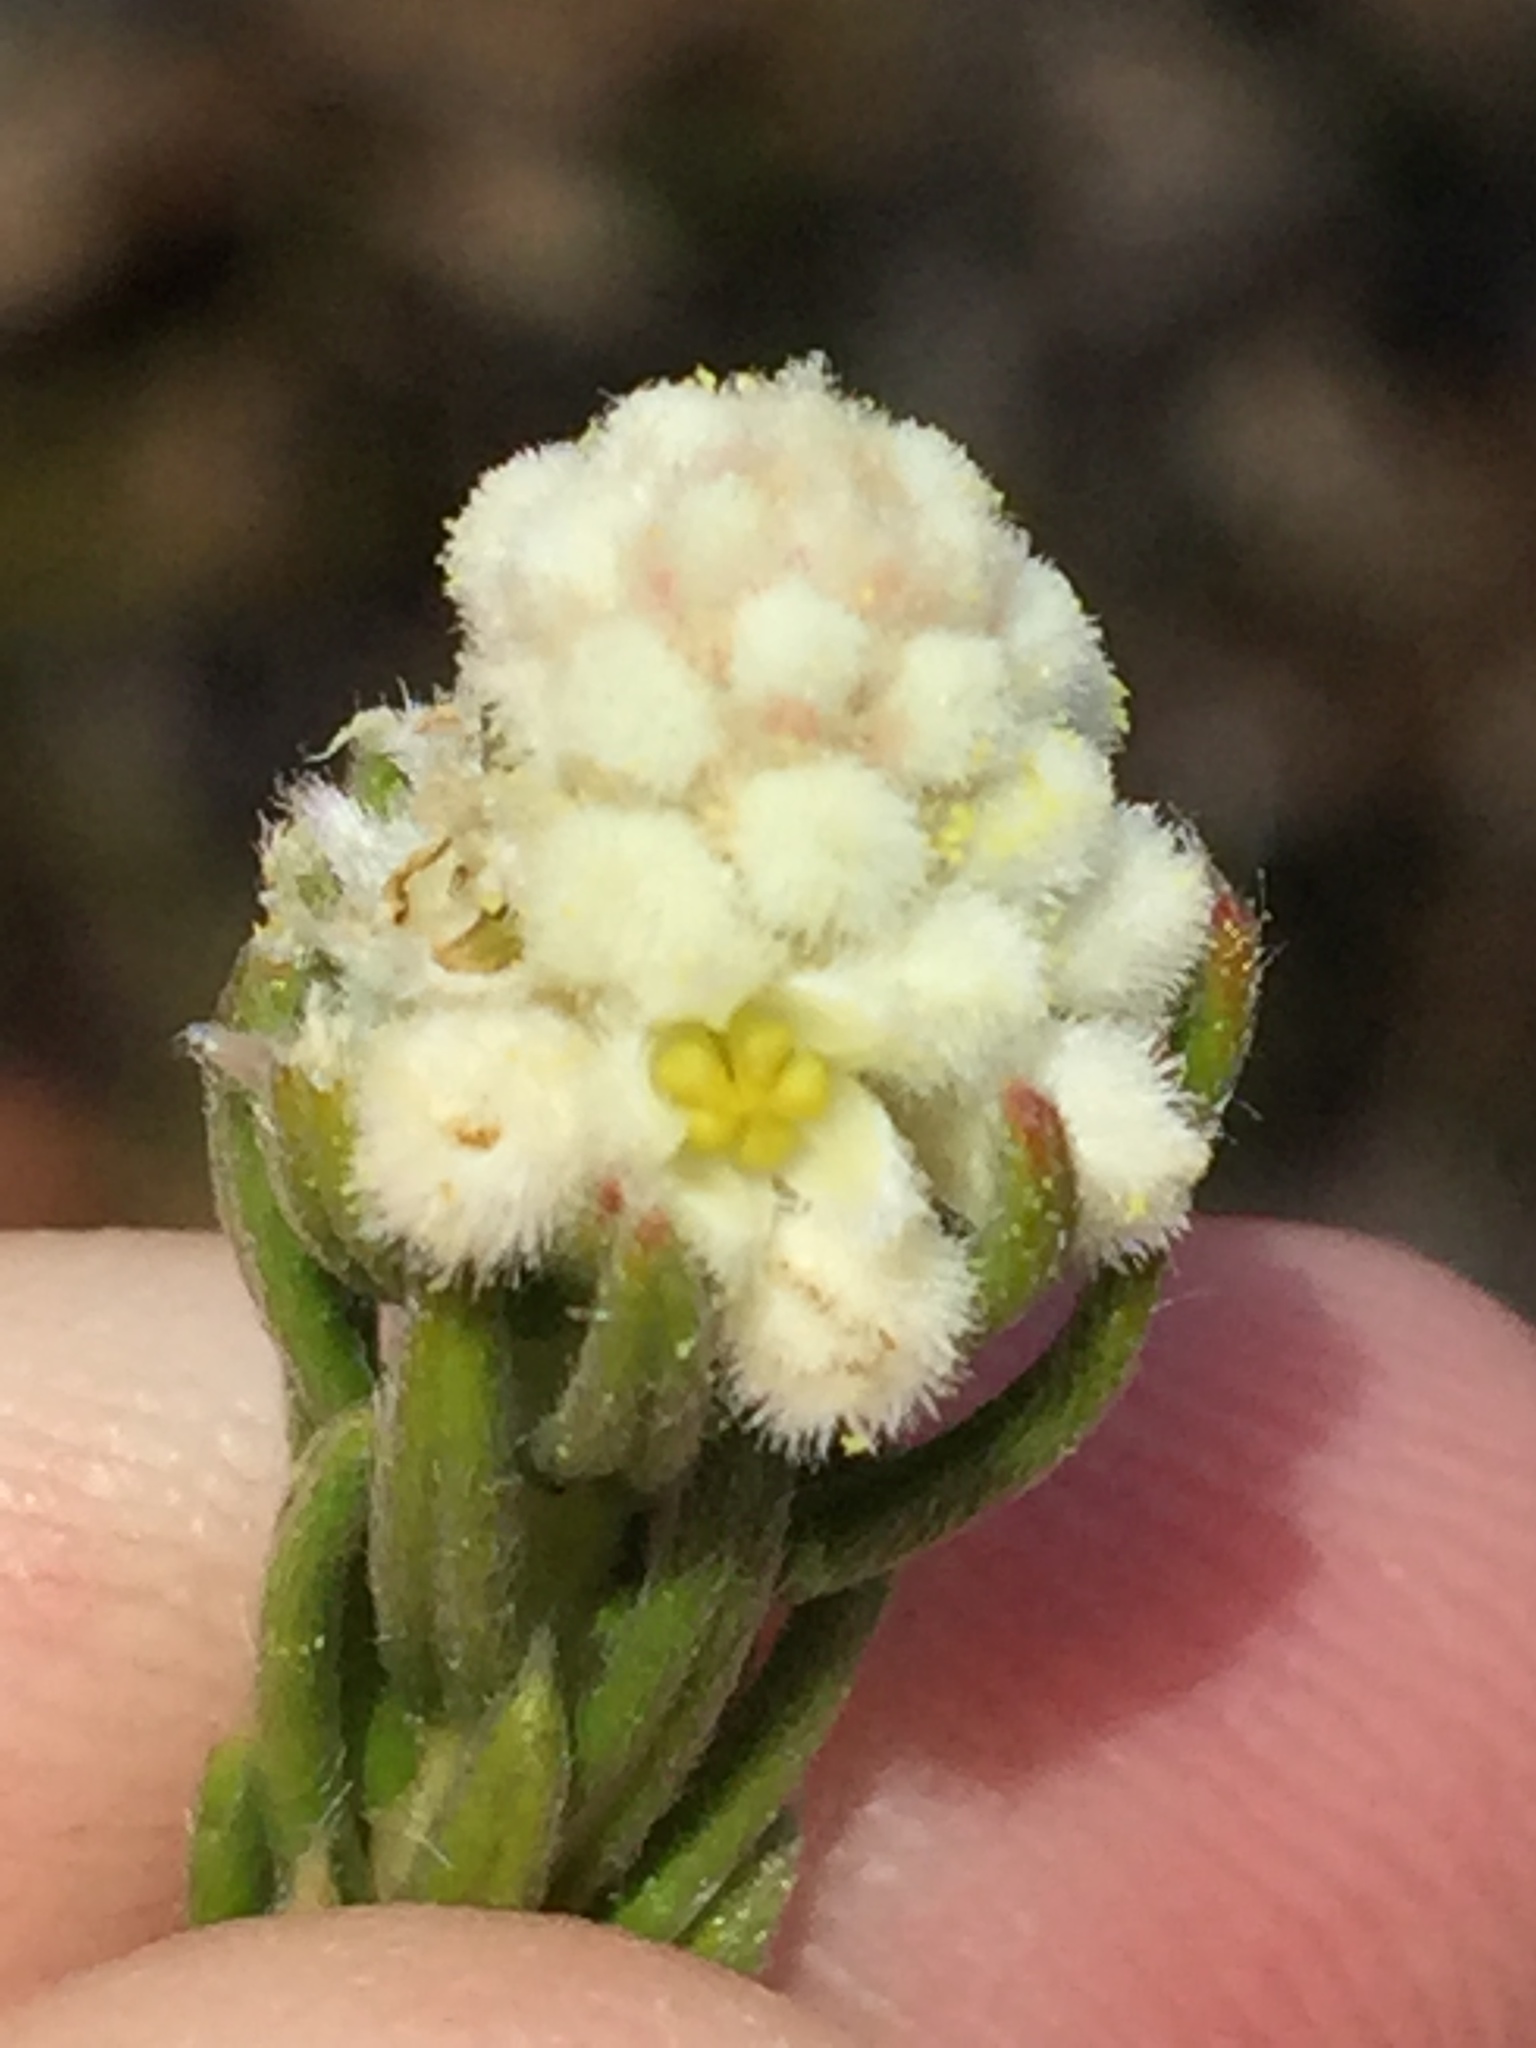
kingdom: Plantae
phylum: Tracheophyta
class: Magnoliopsida
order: Rosales
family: Rhamnaceae
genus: Phylica
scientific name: Phylica imberbis
